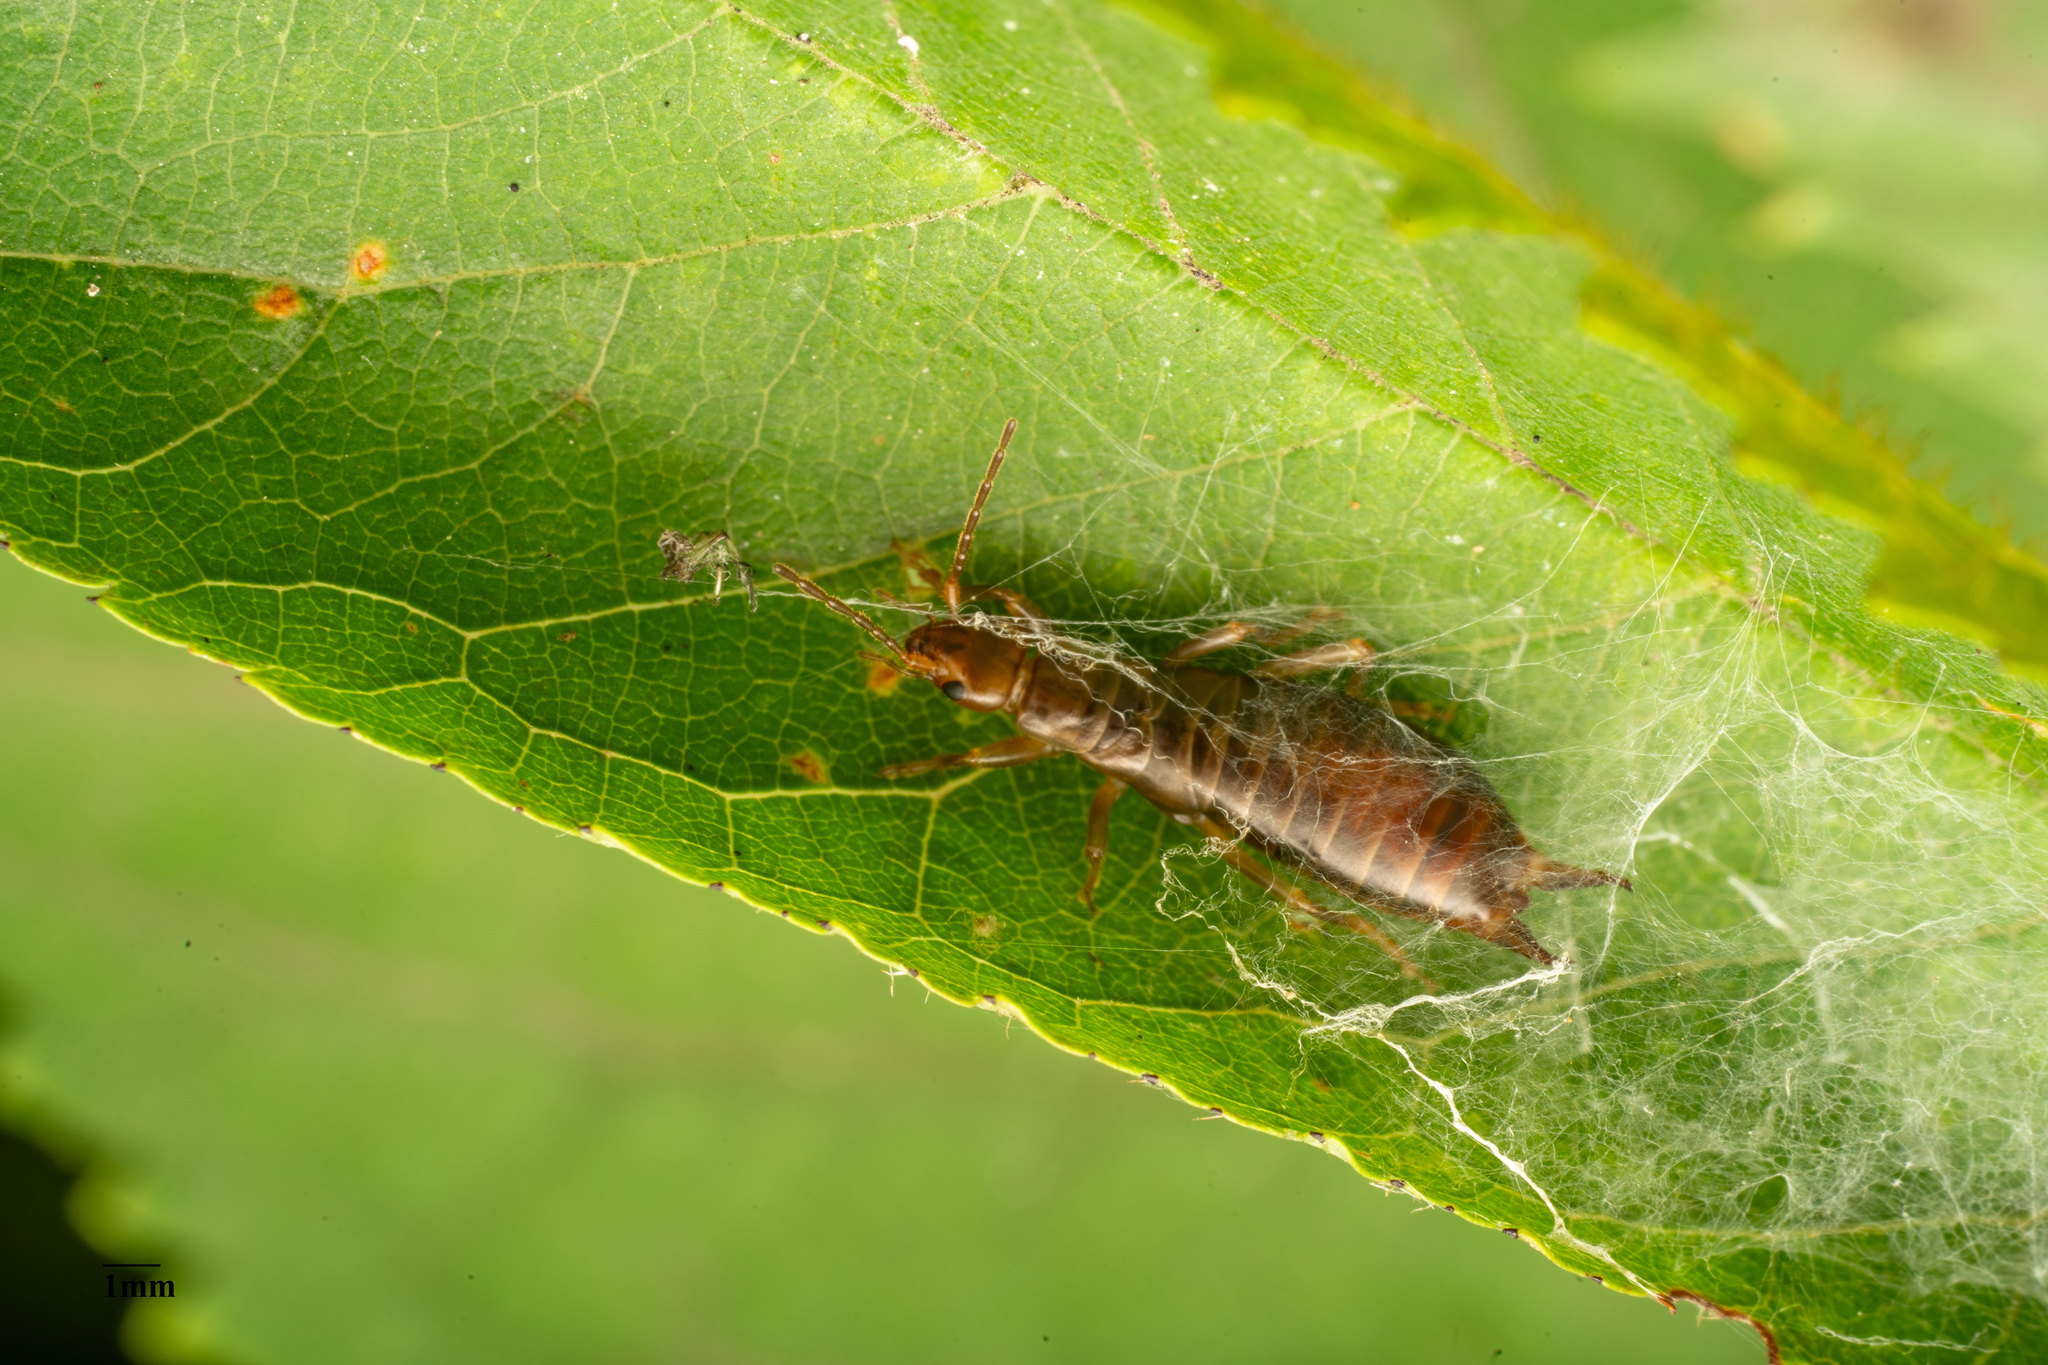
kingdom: Animalia
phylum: Arthropoda
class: Insecta
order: Dermaptera
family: Forficulidae
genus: Chelidurella
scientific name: Chelidurella acanthopygia
